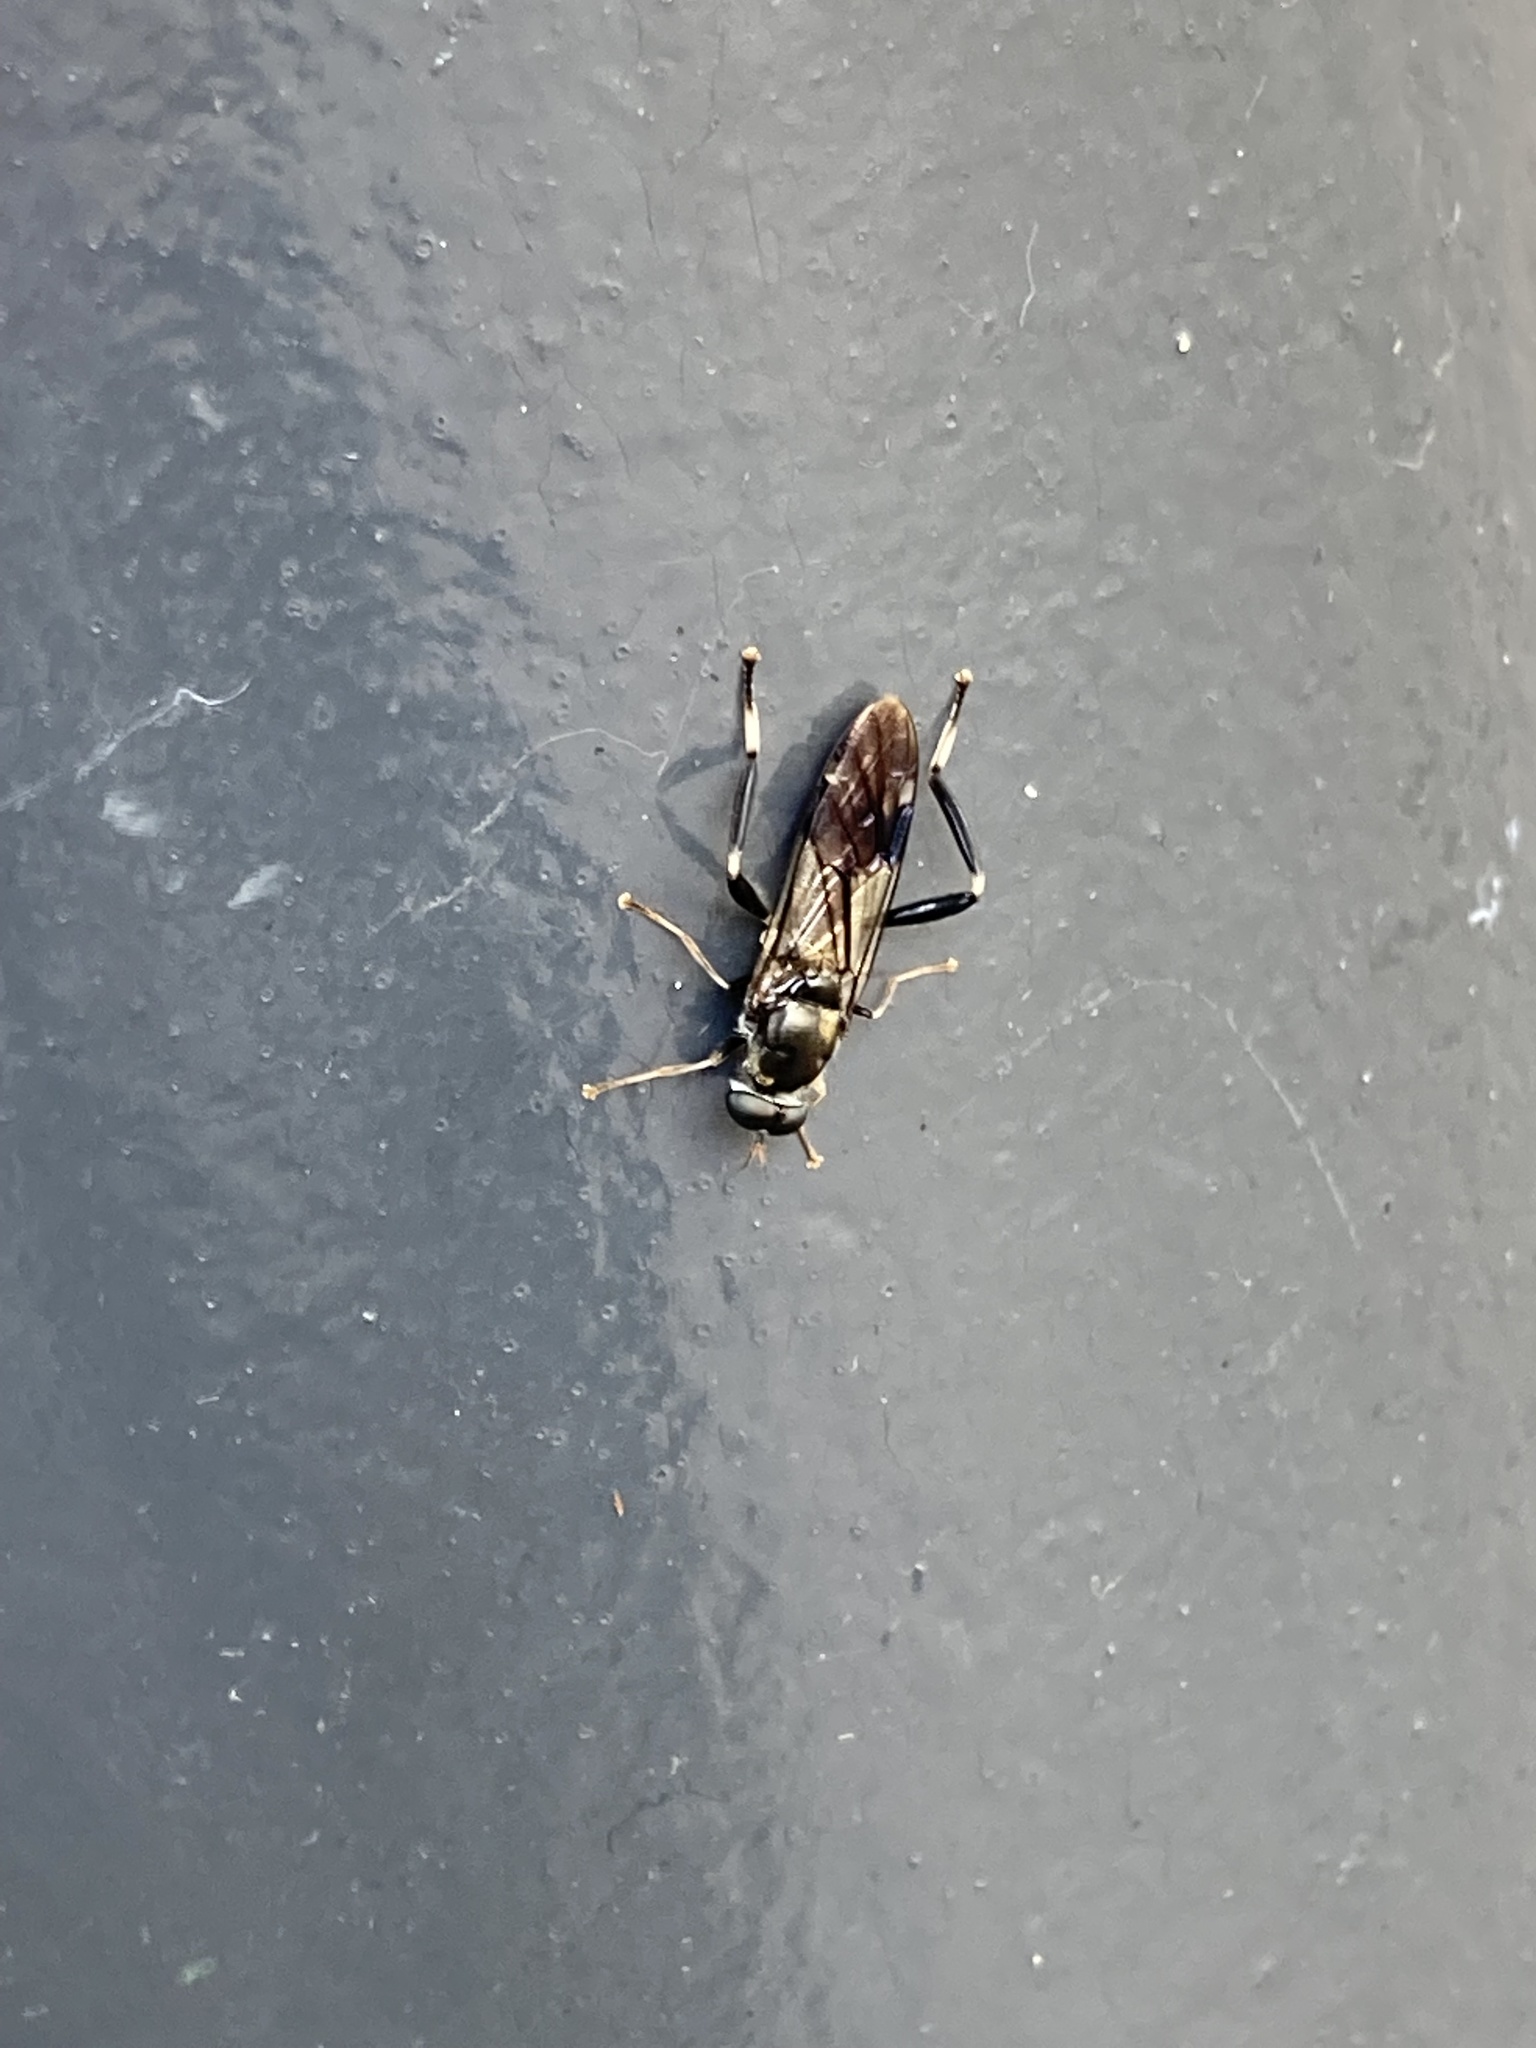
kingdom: Animalia
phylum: Arthropoda
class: Insecta
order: Diptera
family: Stratiomyidae
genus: Exaireta
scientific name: Exaireta spinigera
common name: Blue soldier fly
